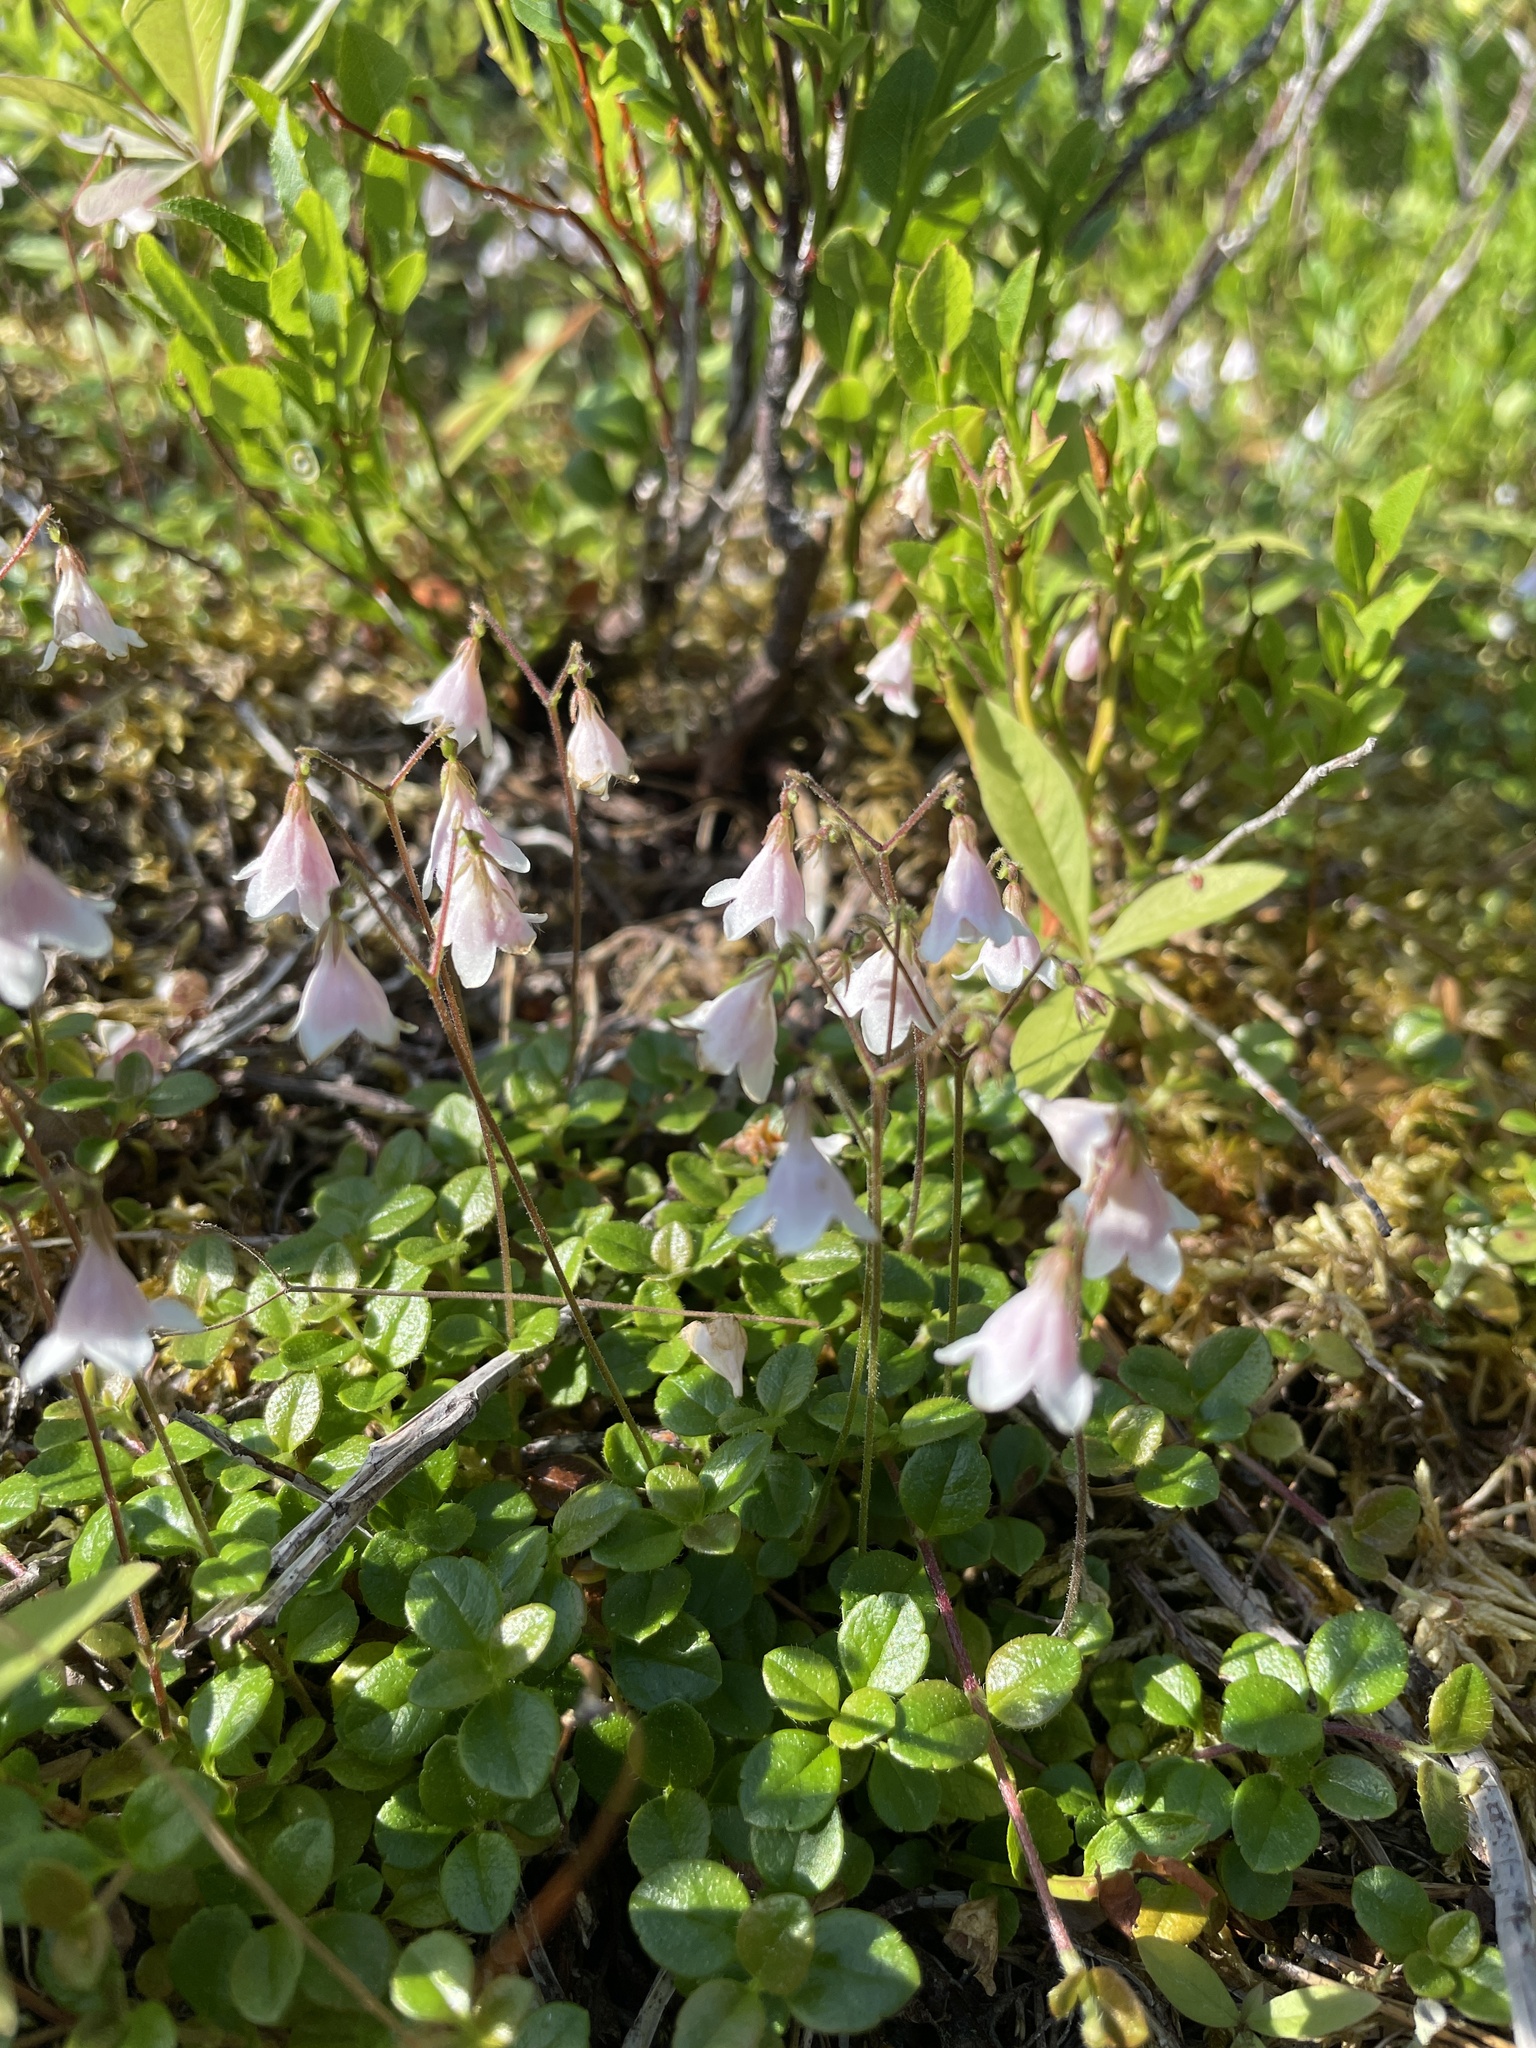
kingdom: Plantae
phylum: Tracheophyta
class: Magnoliopsida
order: Dipsacales
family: Caprifoliaceae
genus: Linnaea
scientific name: Linnaea borealis
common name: Twinflower
